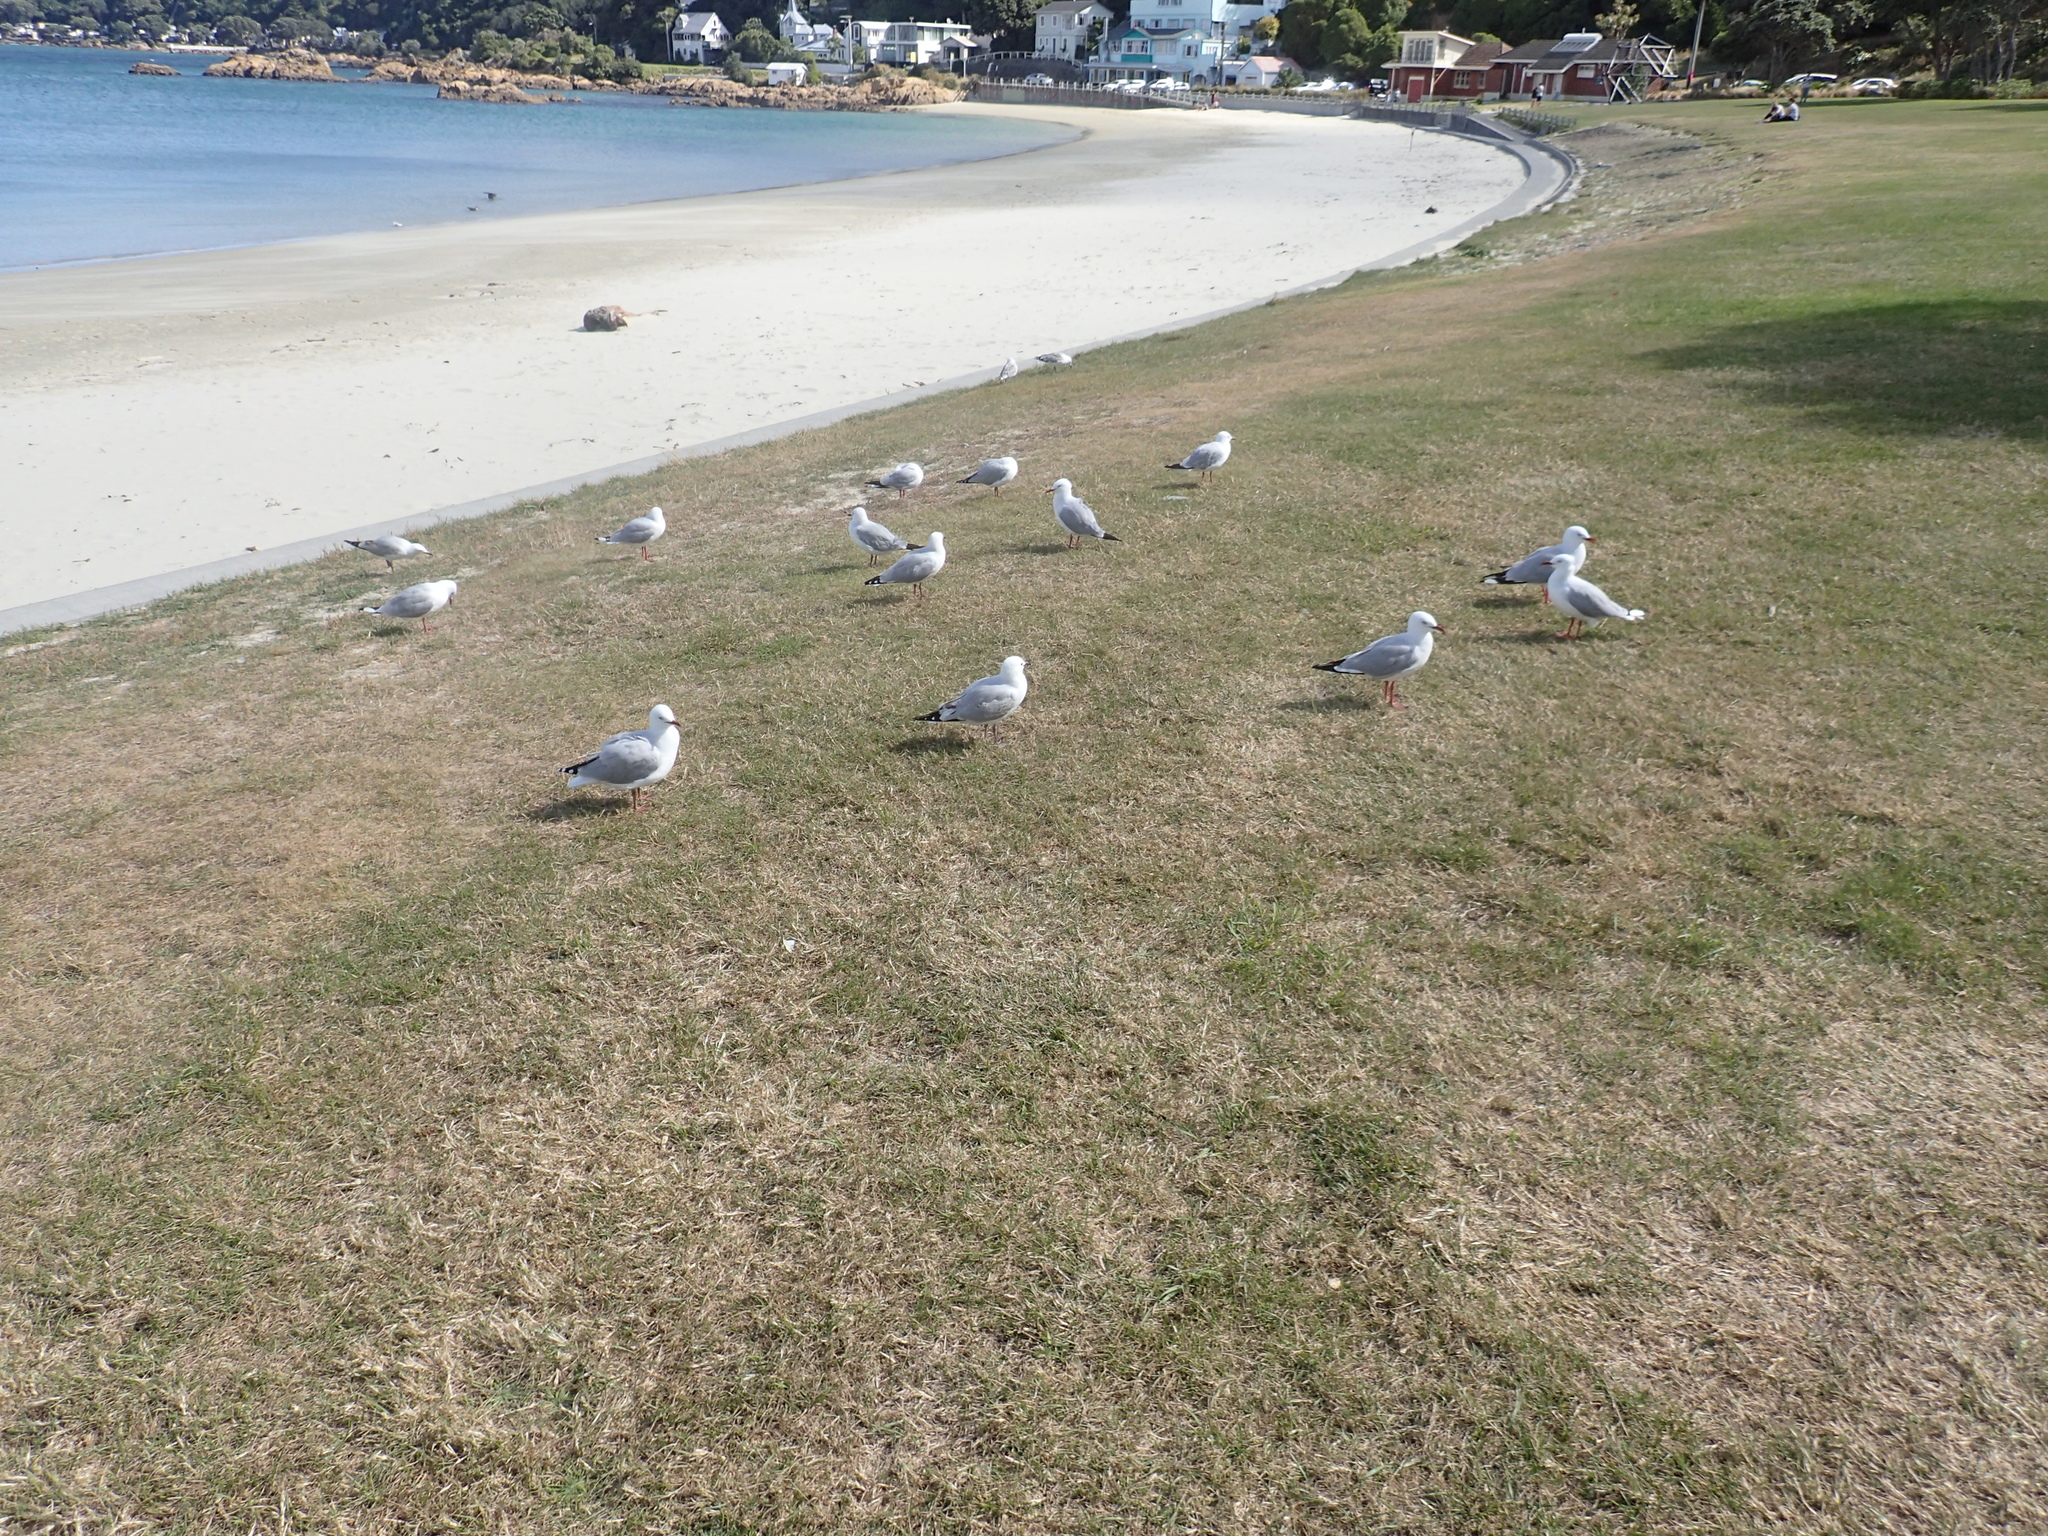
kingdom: Animalia
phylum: Chordata
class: Aves
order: Charadriiformes
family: Laridae
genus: Chroicocephalus
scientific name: Chroicocephalus novaehollandiae
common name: Silver gull
